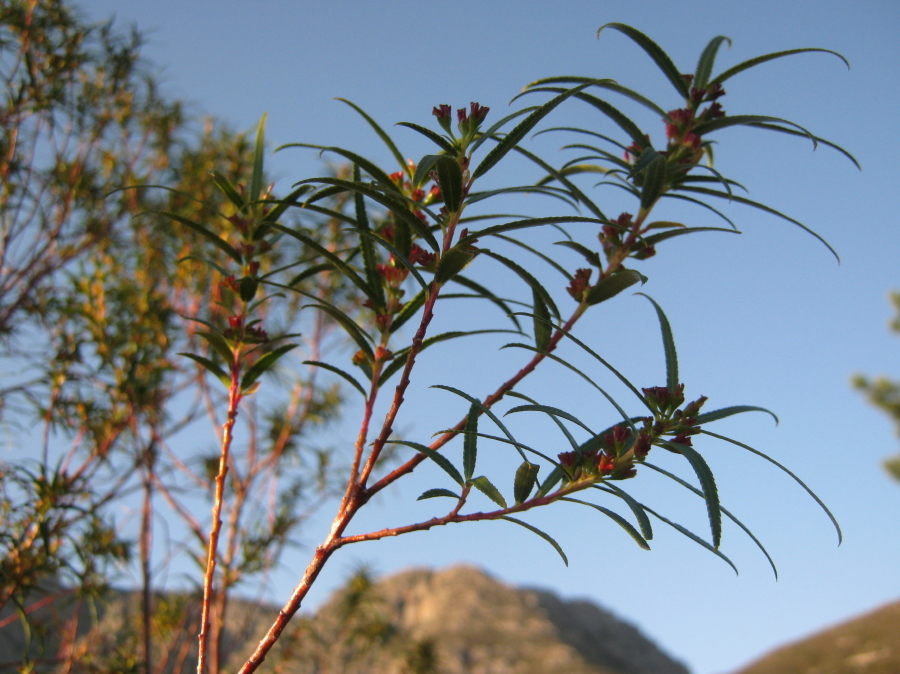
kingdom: Plantae
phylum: Tracheophyta
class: Magnoliopsida
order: Sapindales
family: Rutaceae
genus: Empleurum
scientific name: Empleurum unicapsulare
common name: False buchu
